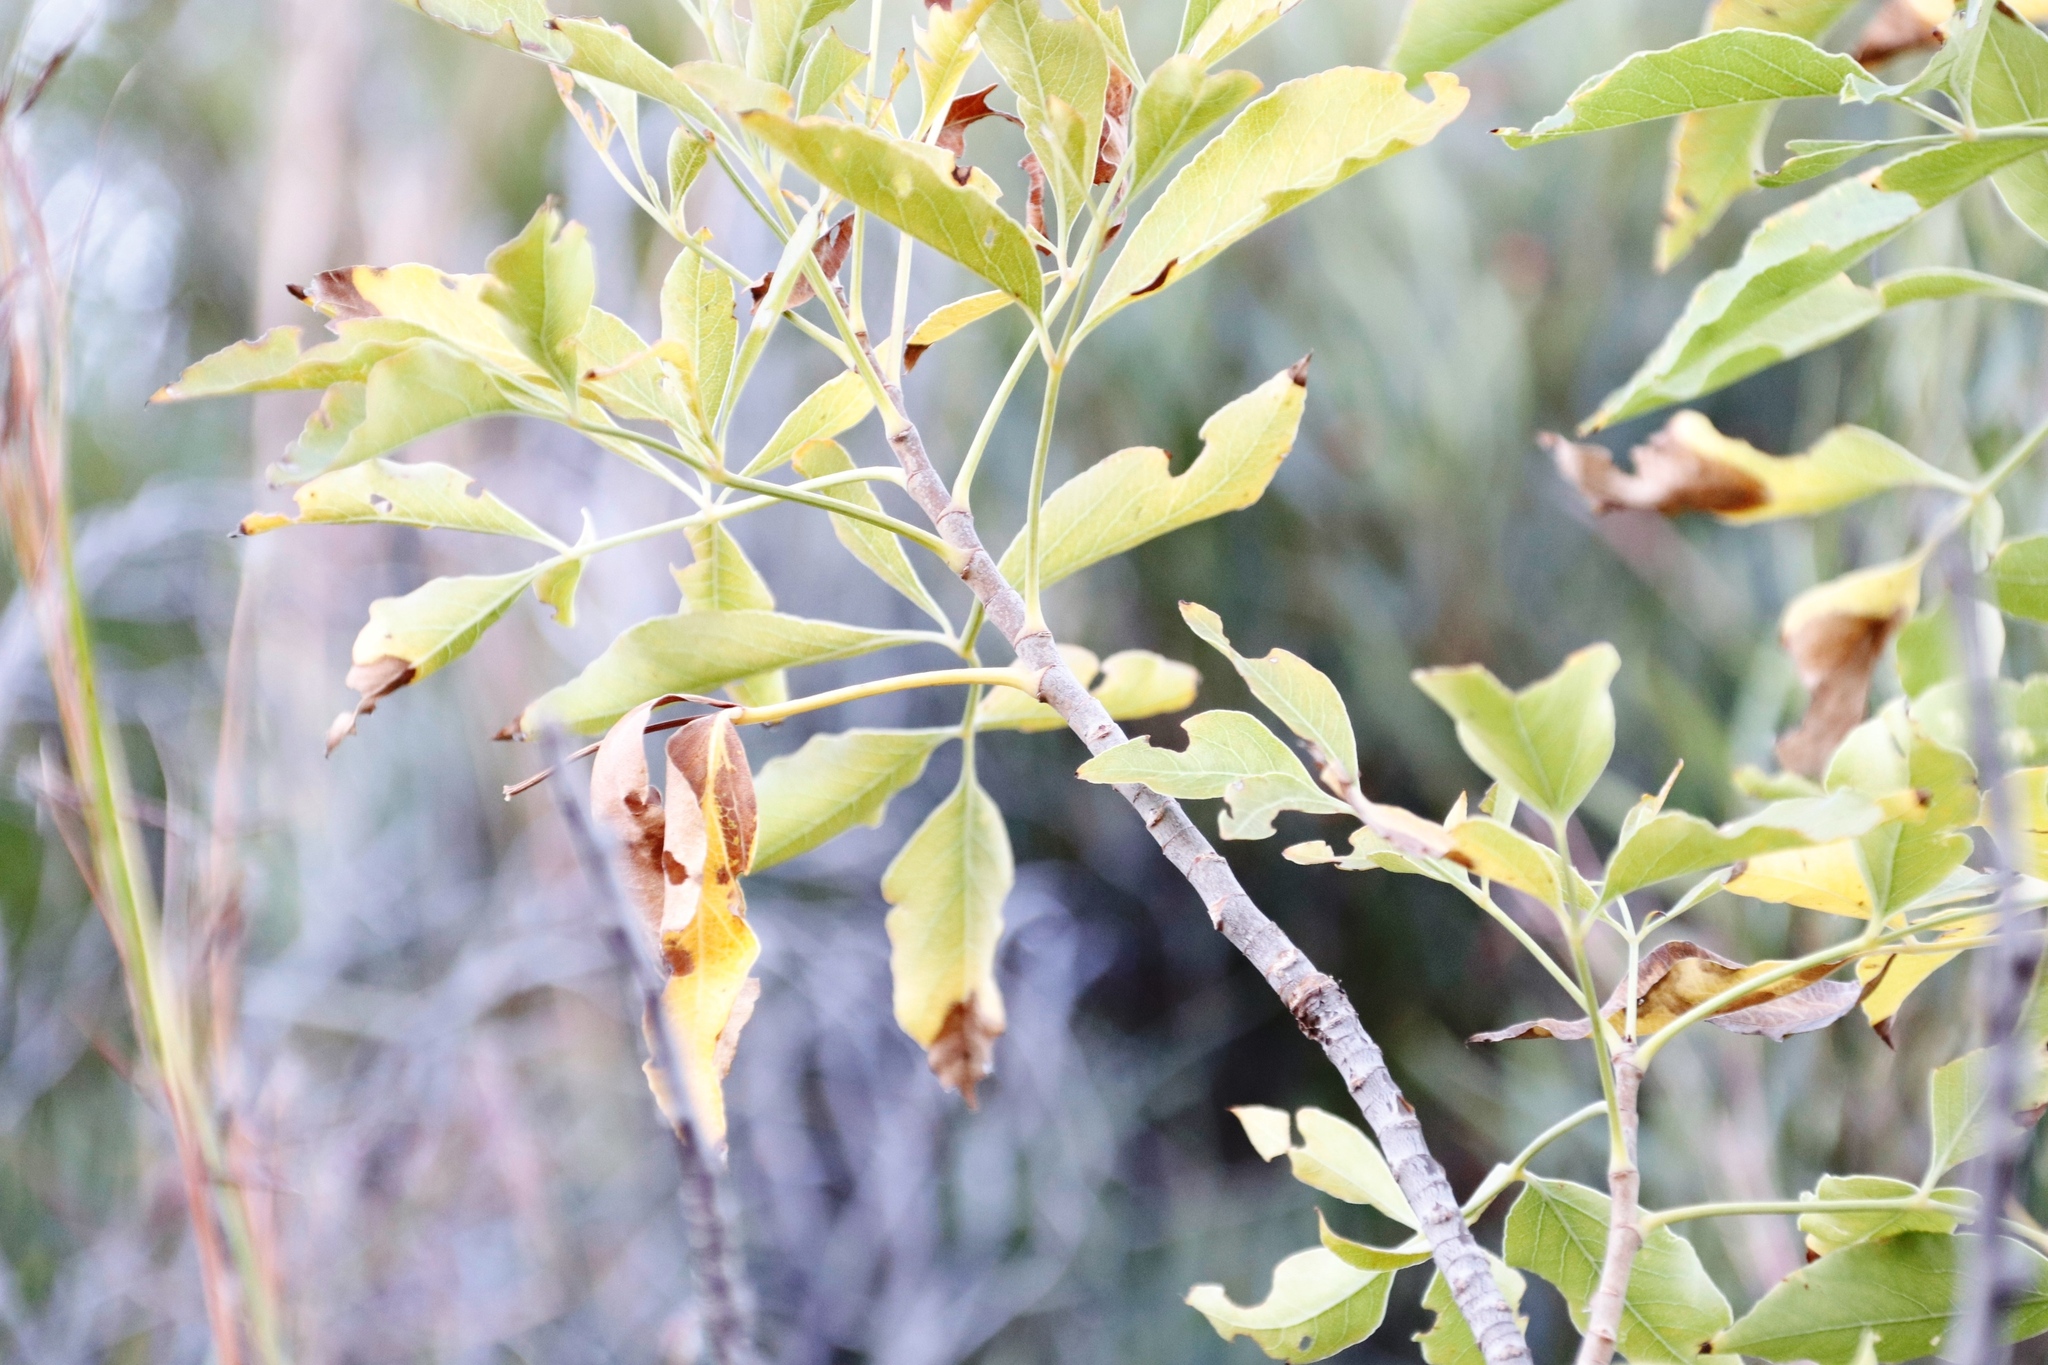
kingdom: Plantae
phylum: Tracheophyta
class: Magnoliopsida
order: Apiales
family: Apiaceae
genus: Heteromorpha
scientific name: Heteromorpha arborescens
